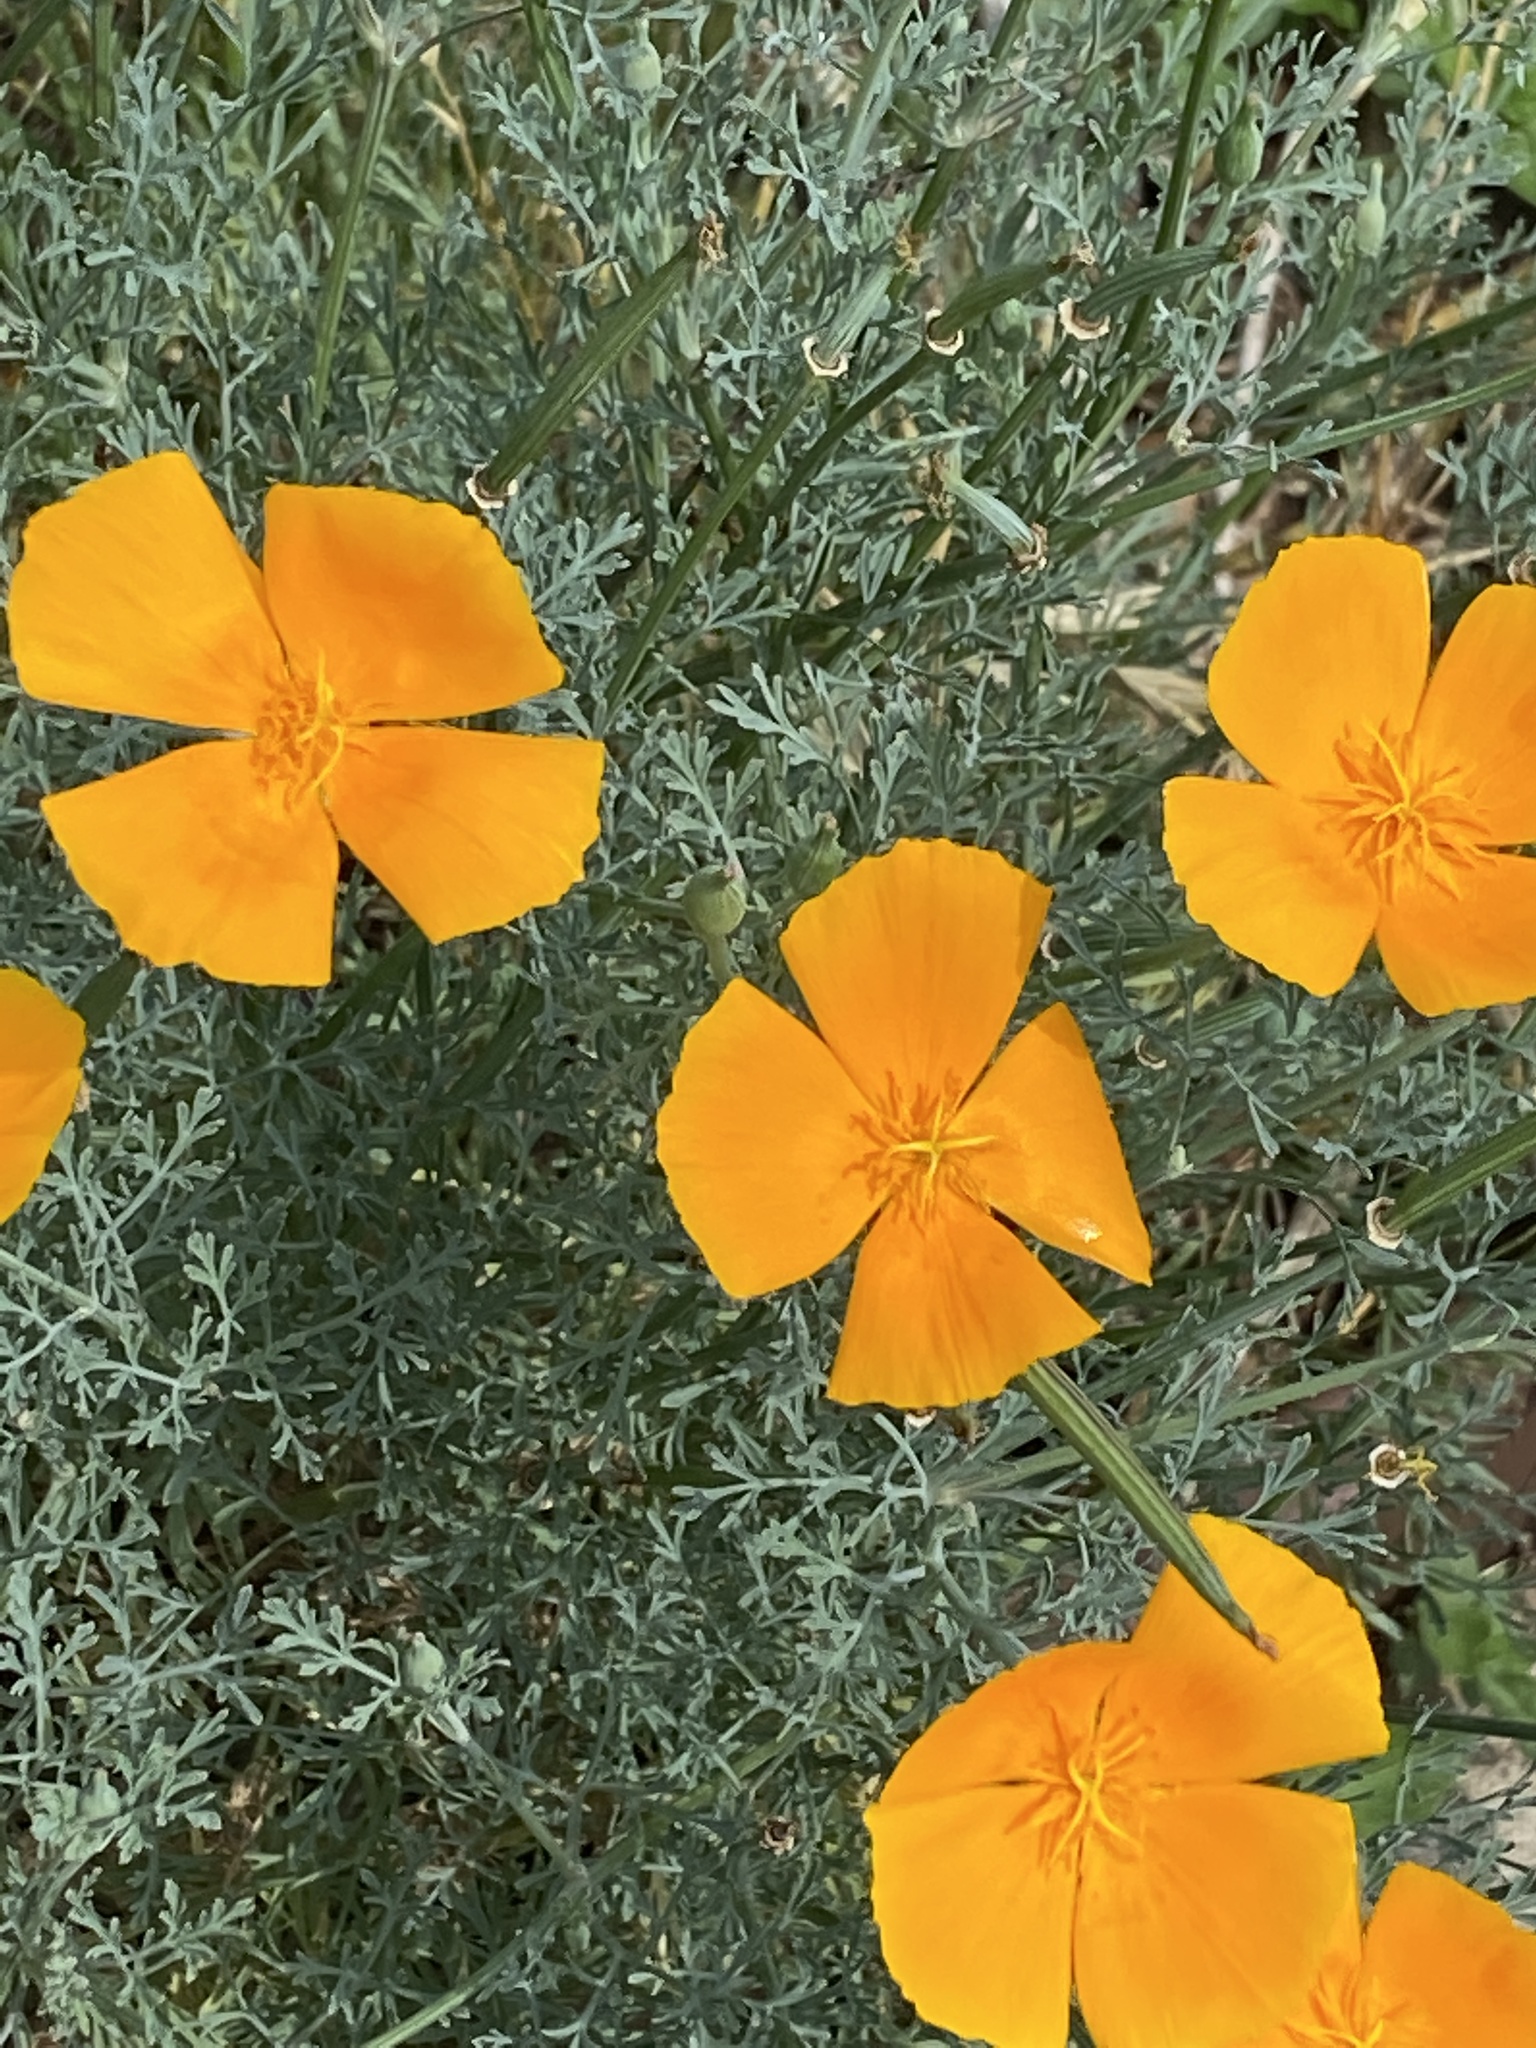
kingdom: Plantae
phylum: Tracheophyta
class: Magnoliopsida
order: Ranunculales
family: Papaveraceae
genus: Eschscholzia
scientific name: Eschscholzia californica
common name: California poppy
